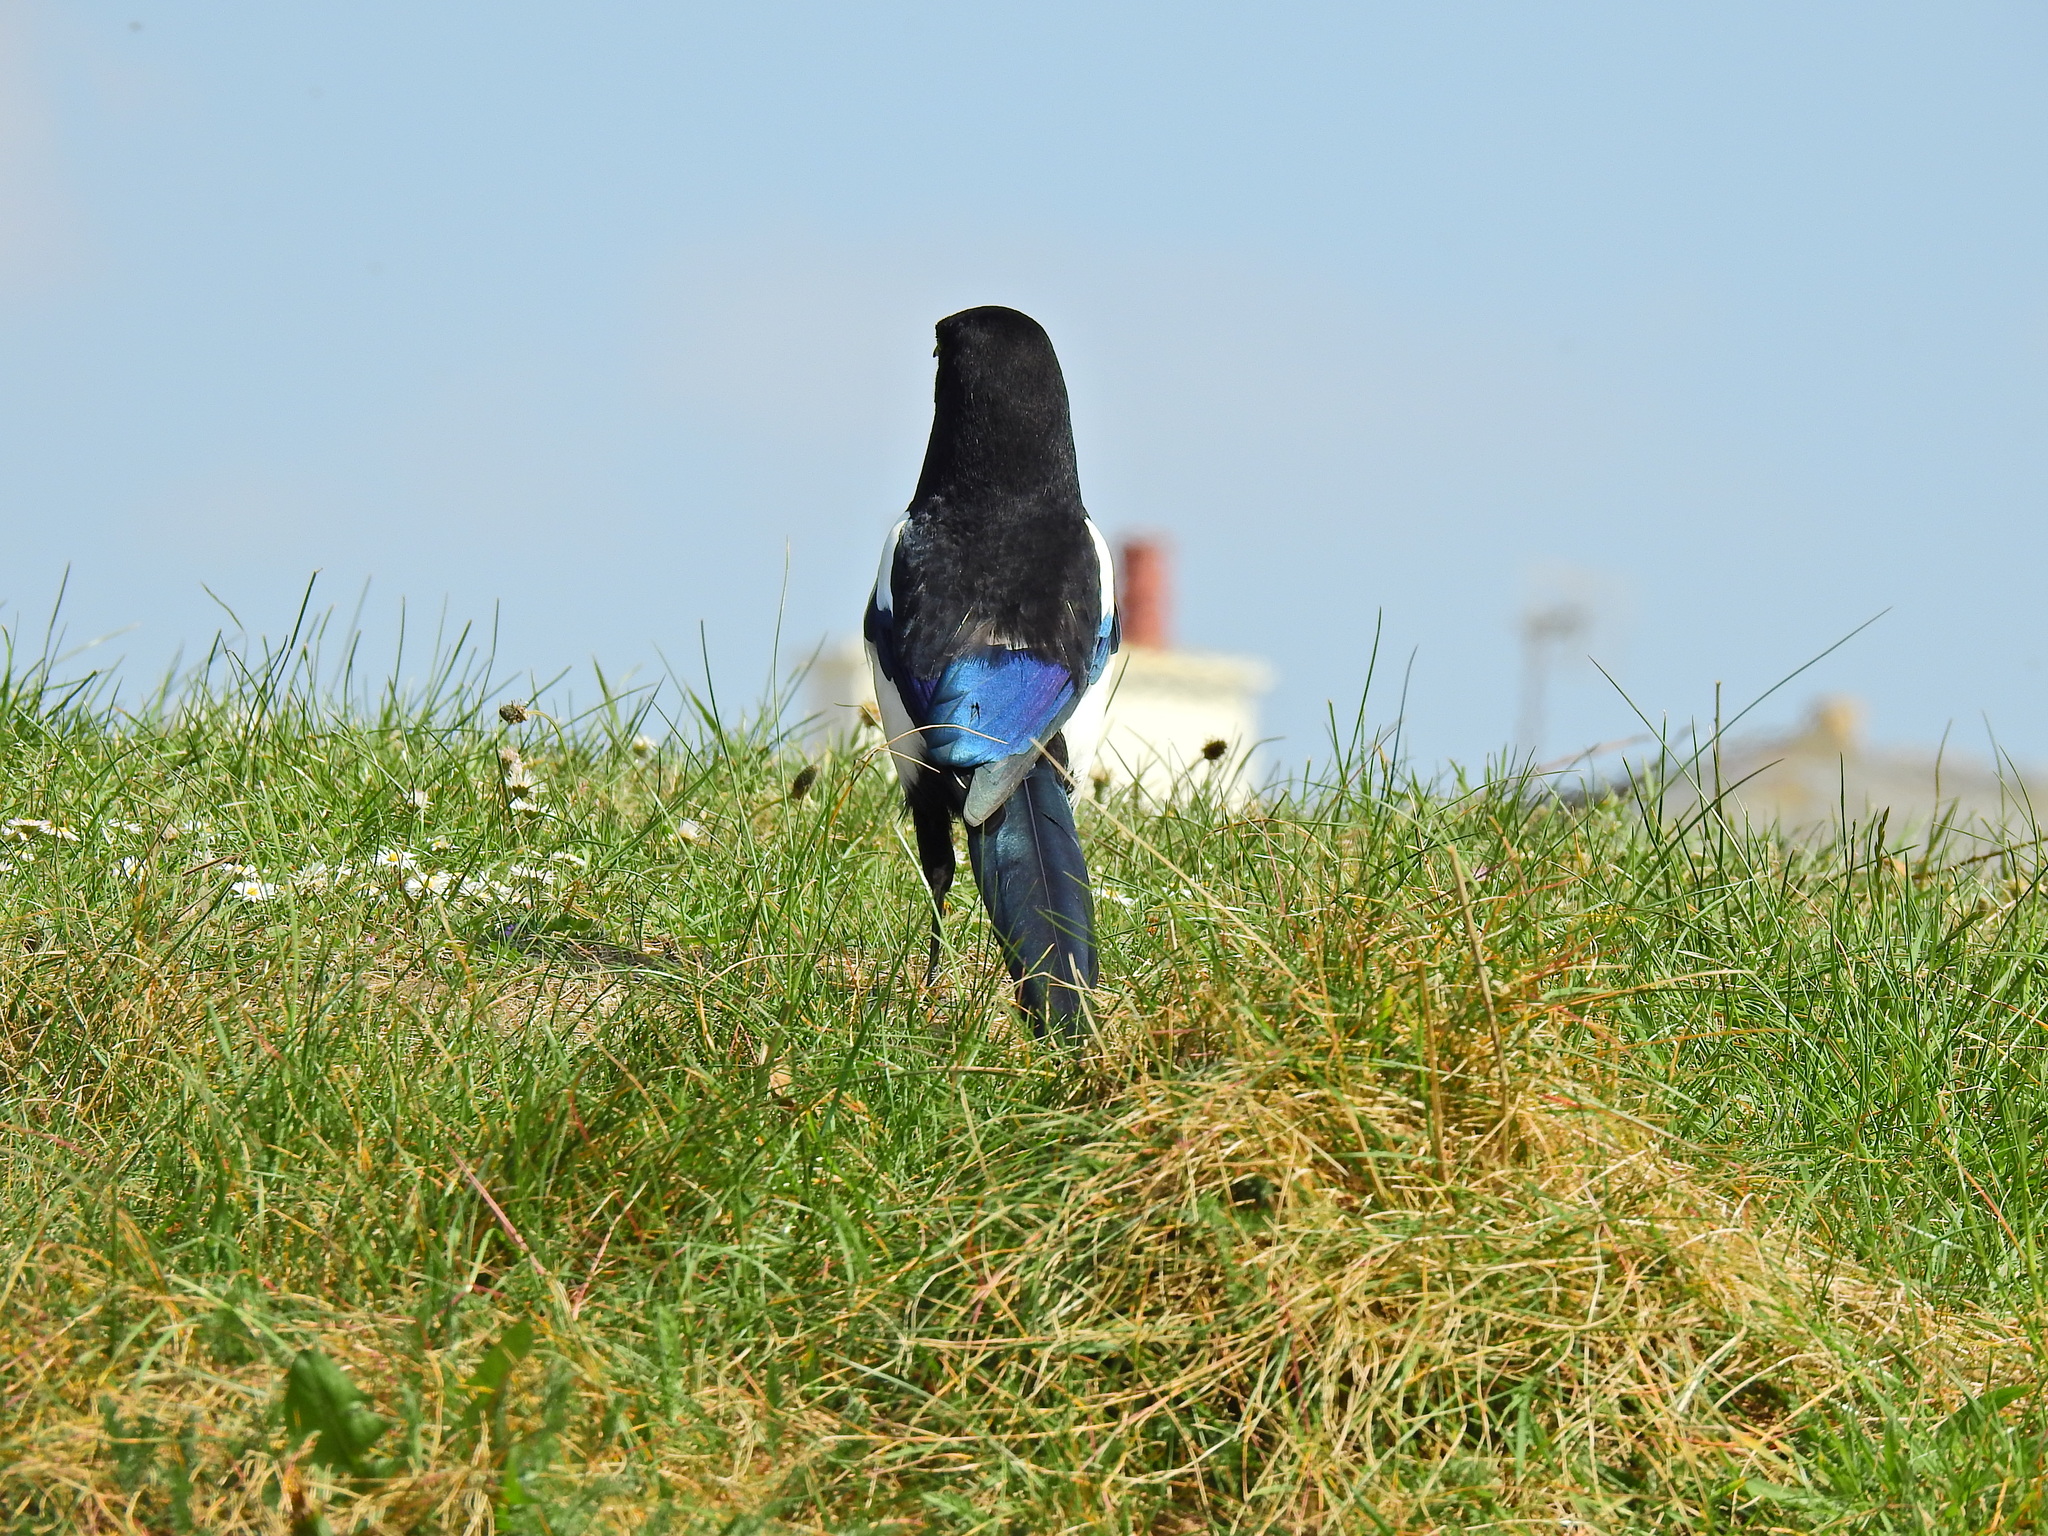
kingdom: Animalia
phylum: Chordata
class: Aves
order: Passeriformes
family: Corvidae
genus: Pica
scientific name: Pica pica
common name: Eurasian magpie
